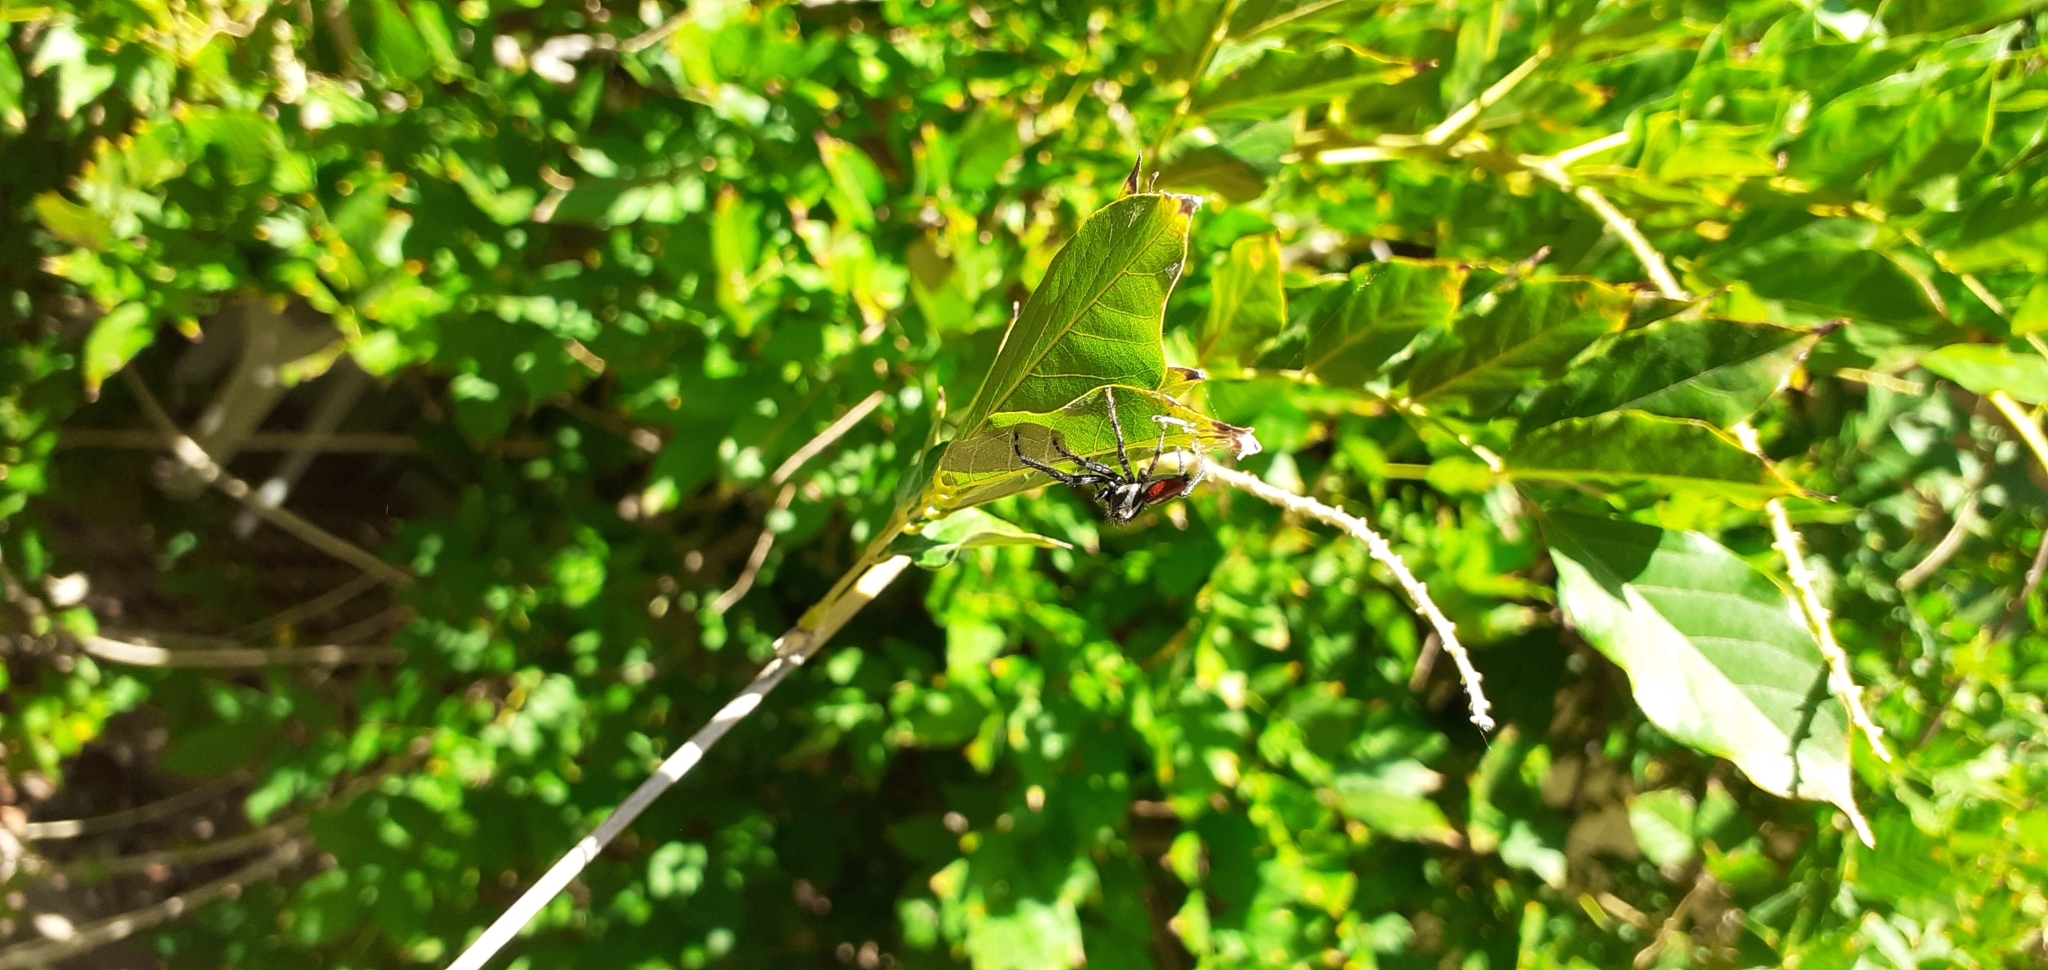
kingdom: Animalia
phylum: Arthropoda
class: Arachnida
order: Araneae
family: Salticidae
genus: Frigga
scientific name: Frigga quintensis
